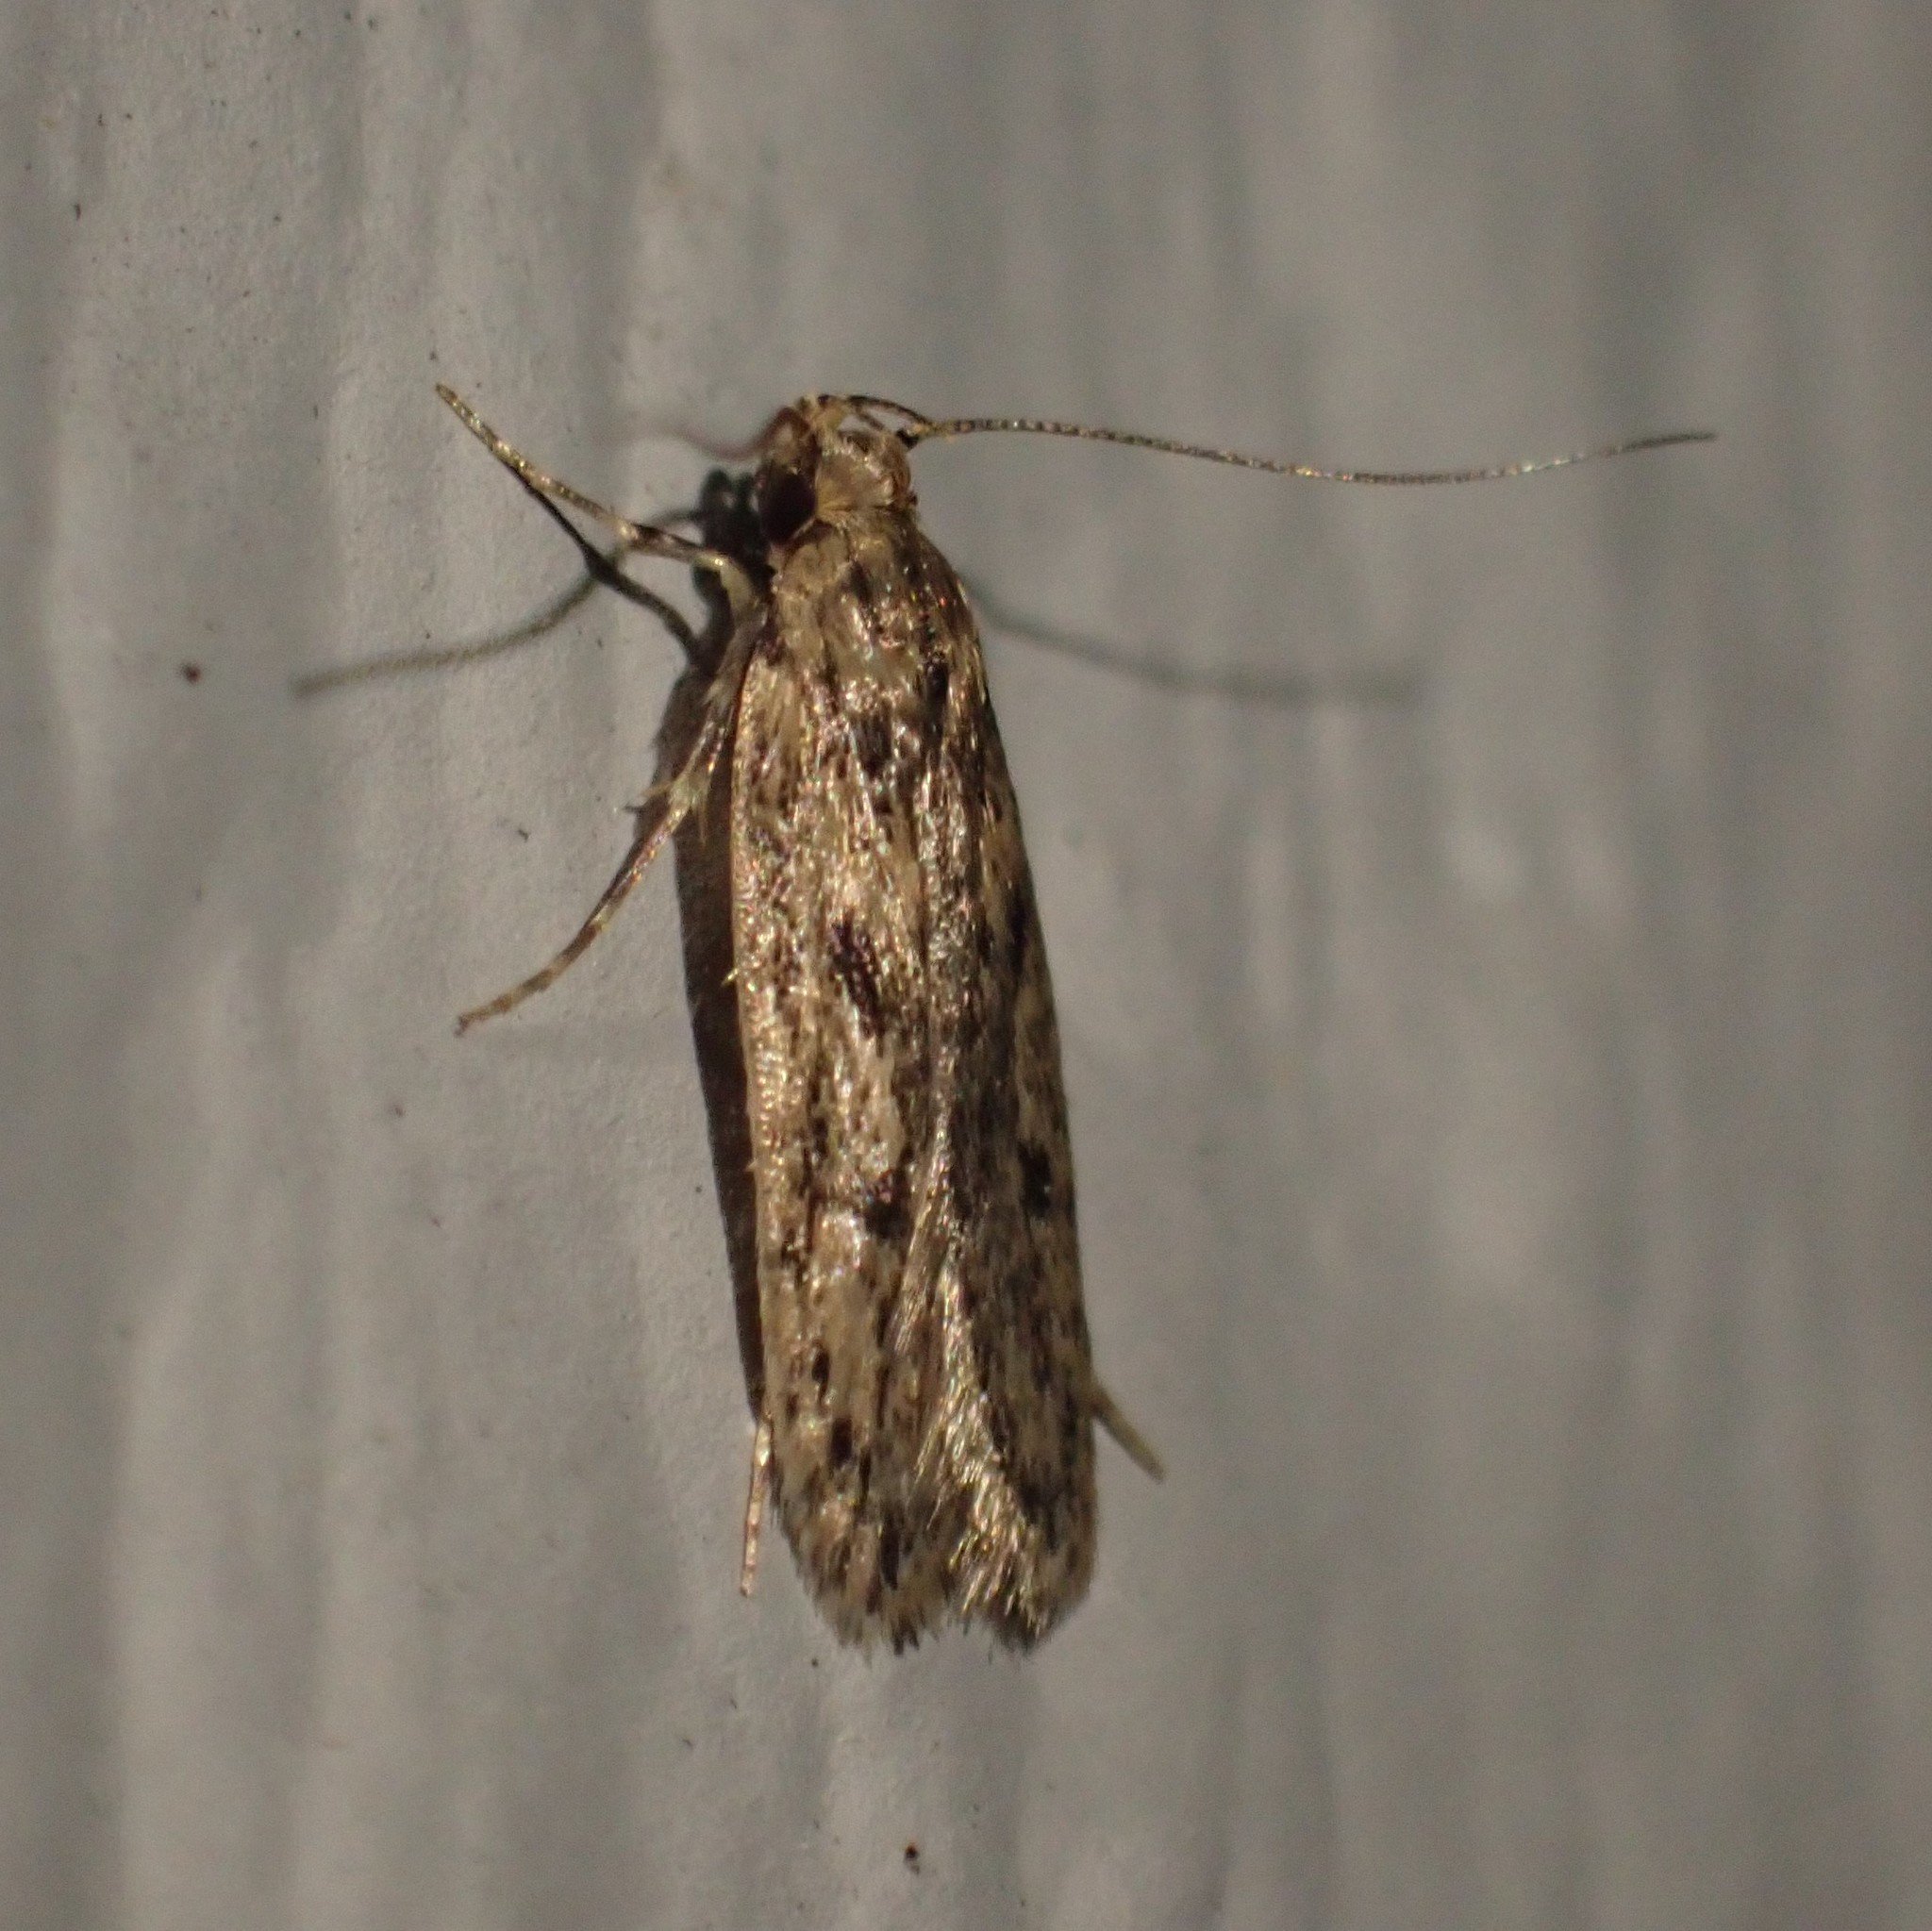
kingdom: Animalia
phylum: Arthropoda
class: Insecta
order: Lepidoptera
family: Oecophoridae
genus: Hofmannophila
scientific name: Hofmannophila pseudospretella
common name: Brown house moth
